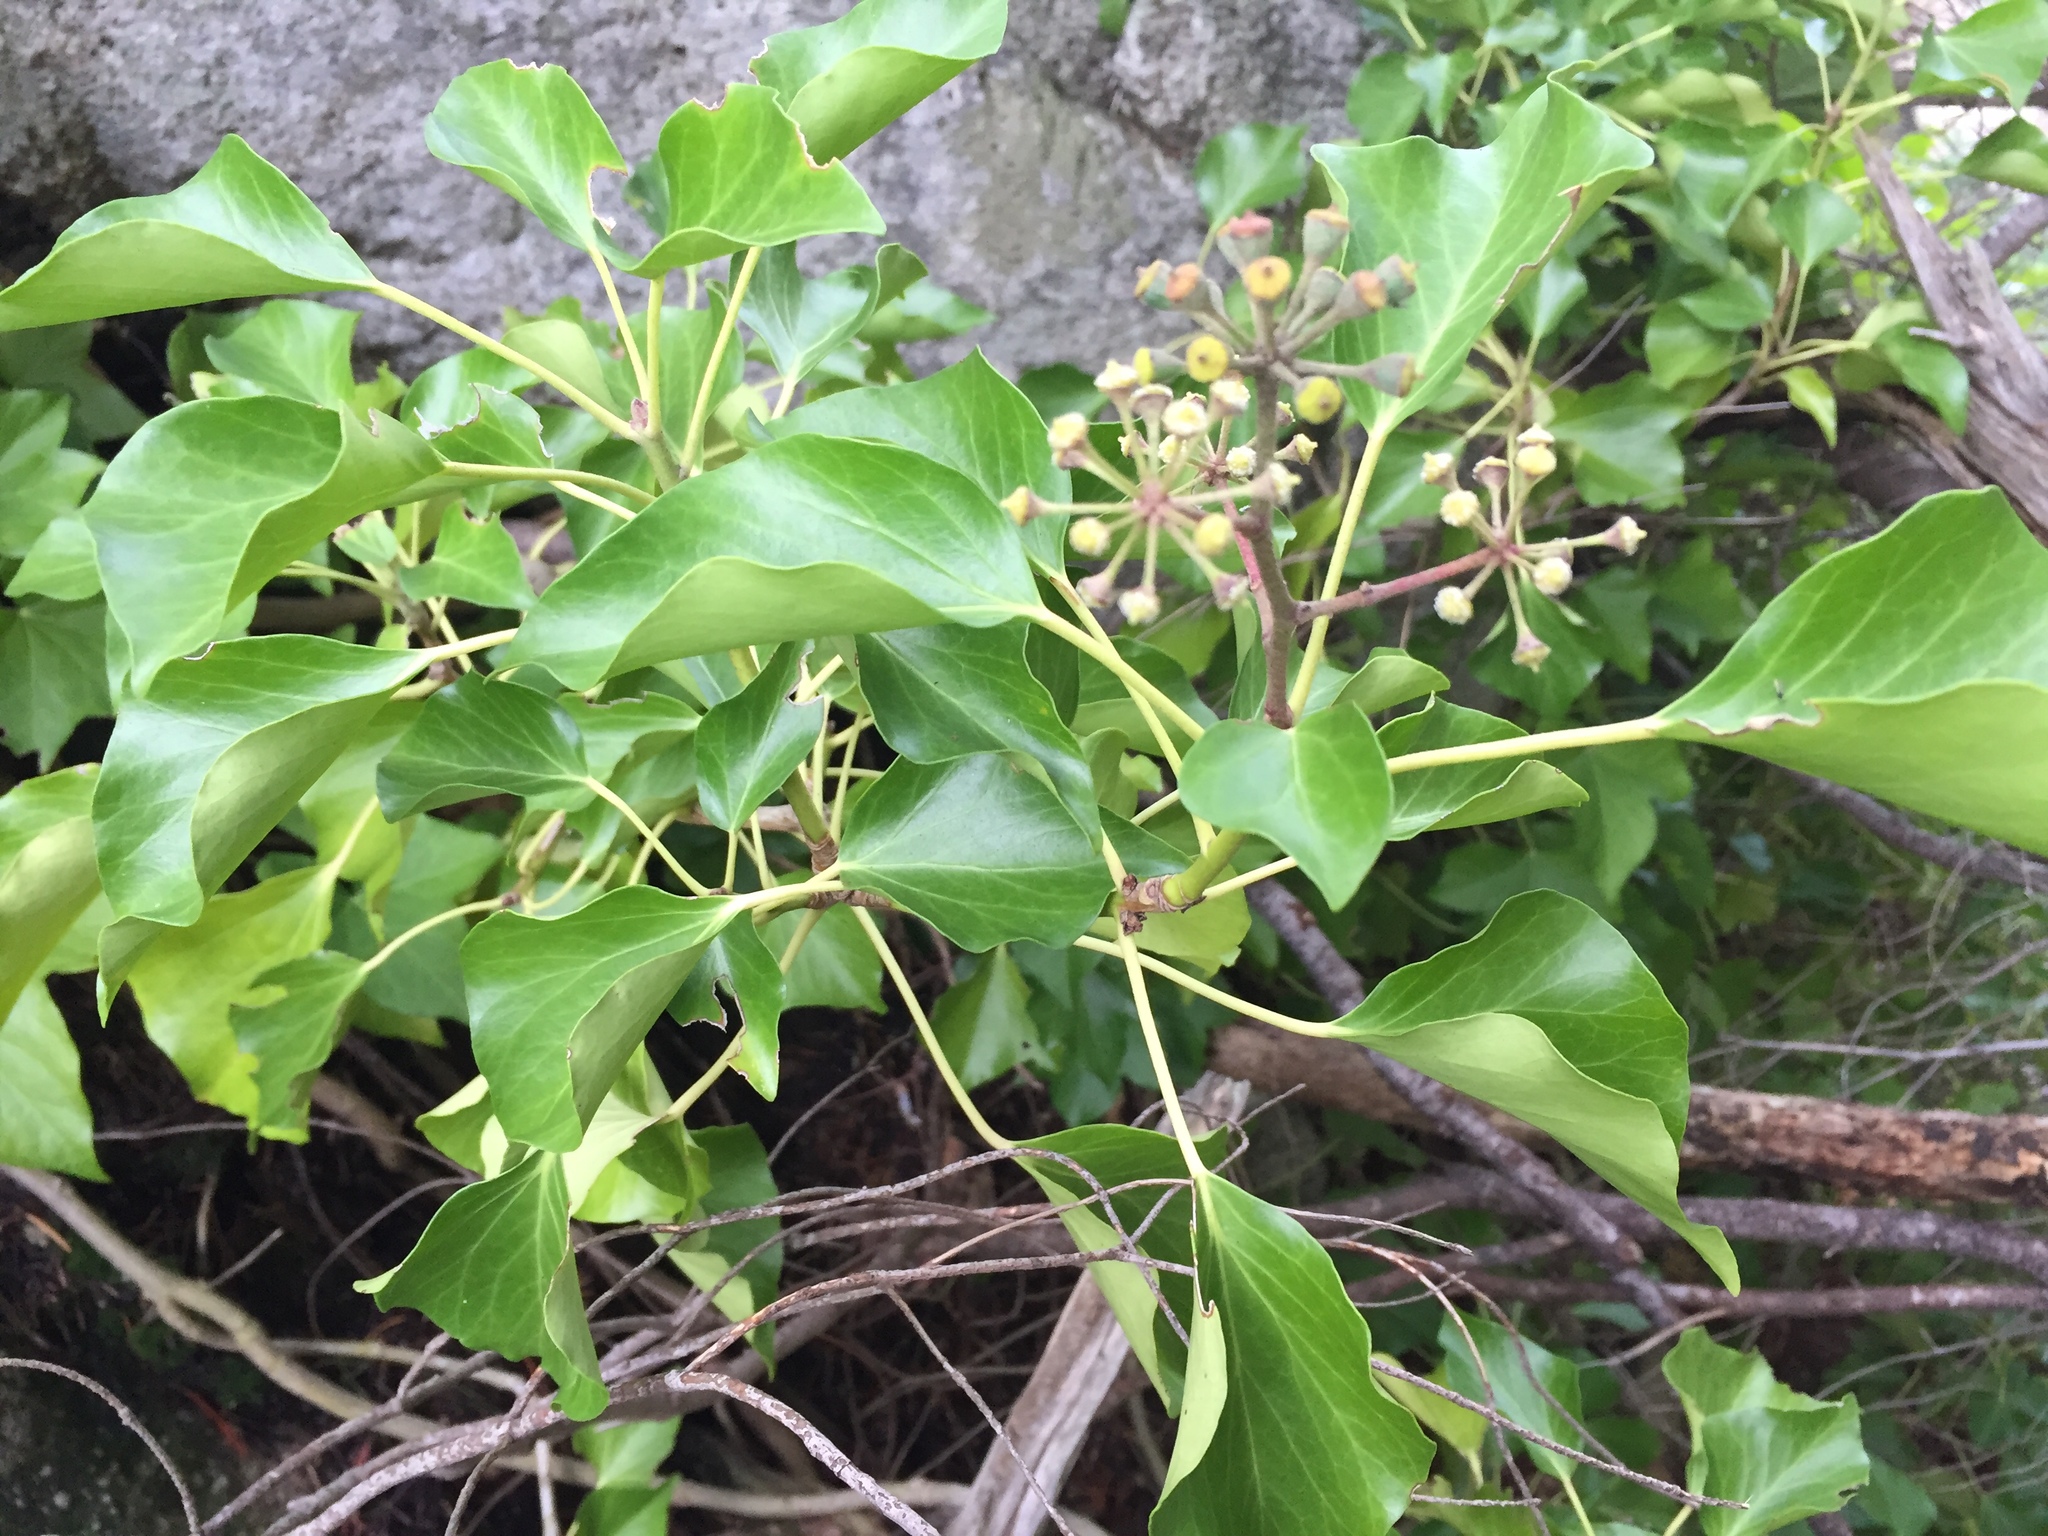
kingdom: Plantae
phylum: Tracheophyta
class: Magnoliopsida
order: Apiales
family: Araliaceae
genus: Hedera
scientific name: Hedera helix
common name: Ivy
